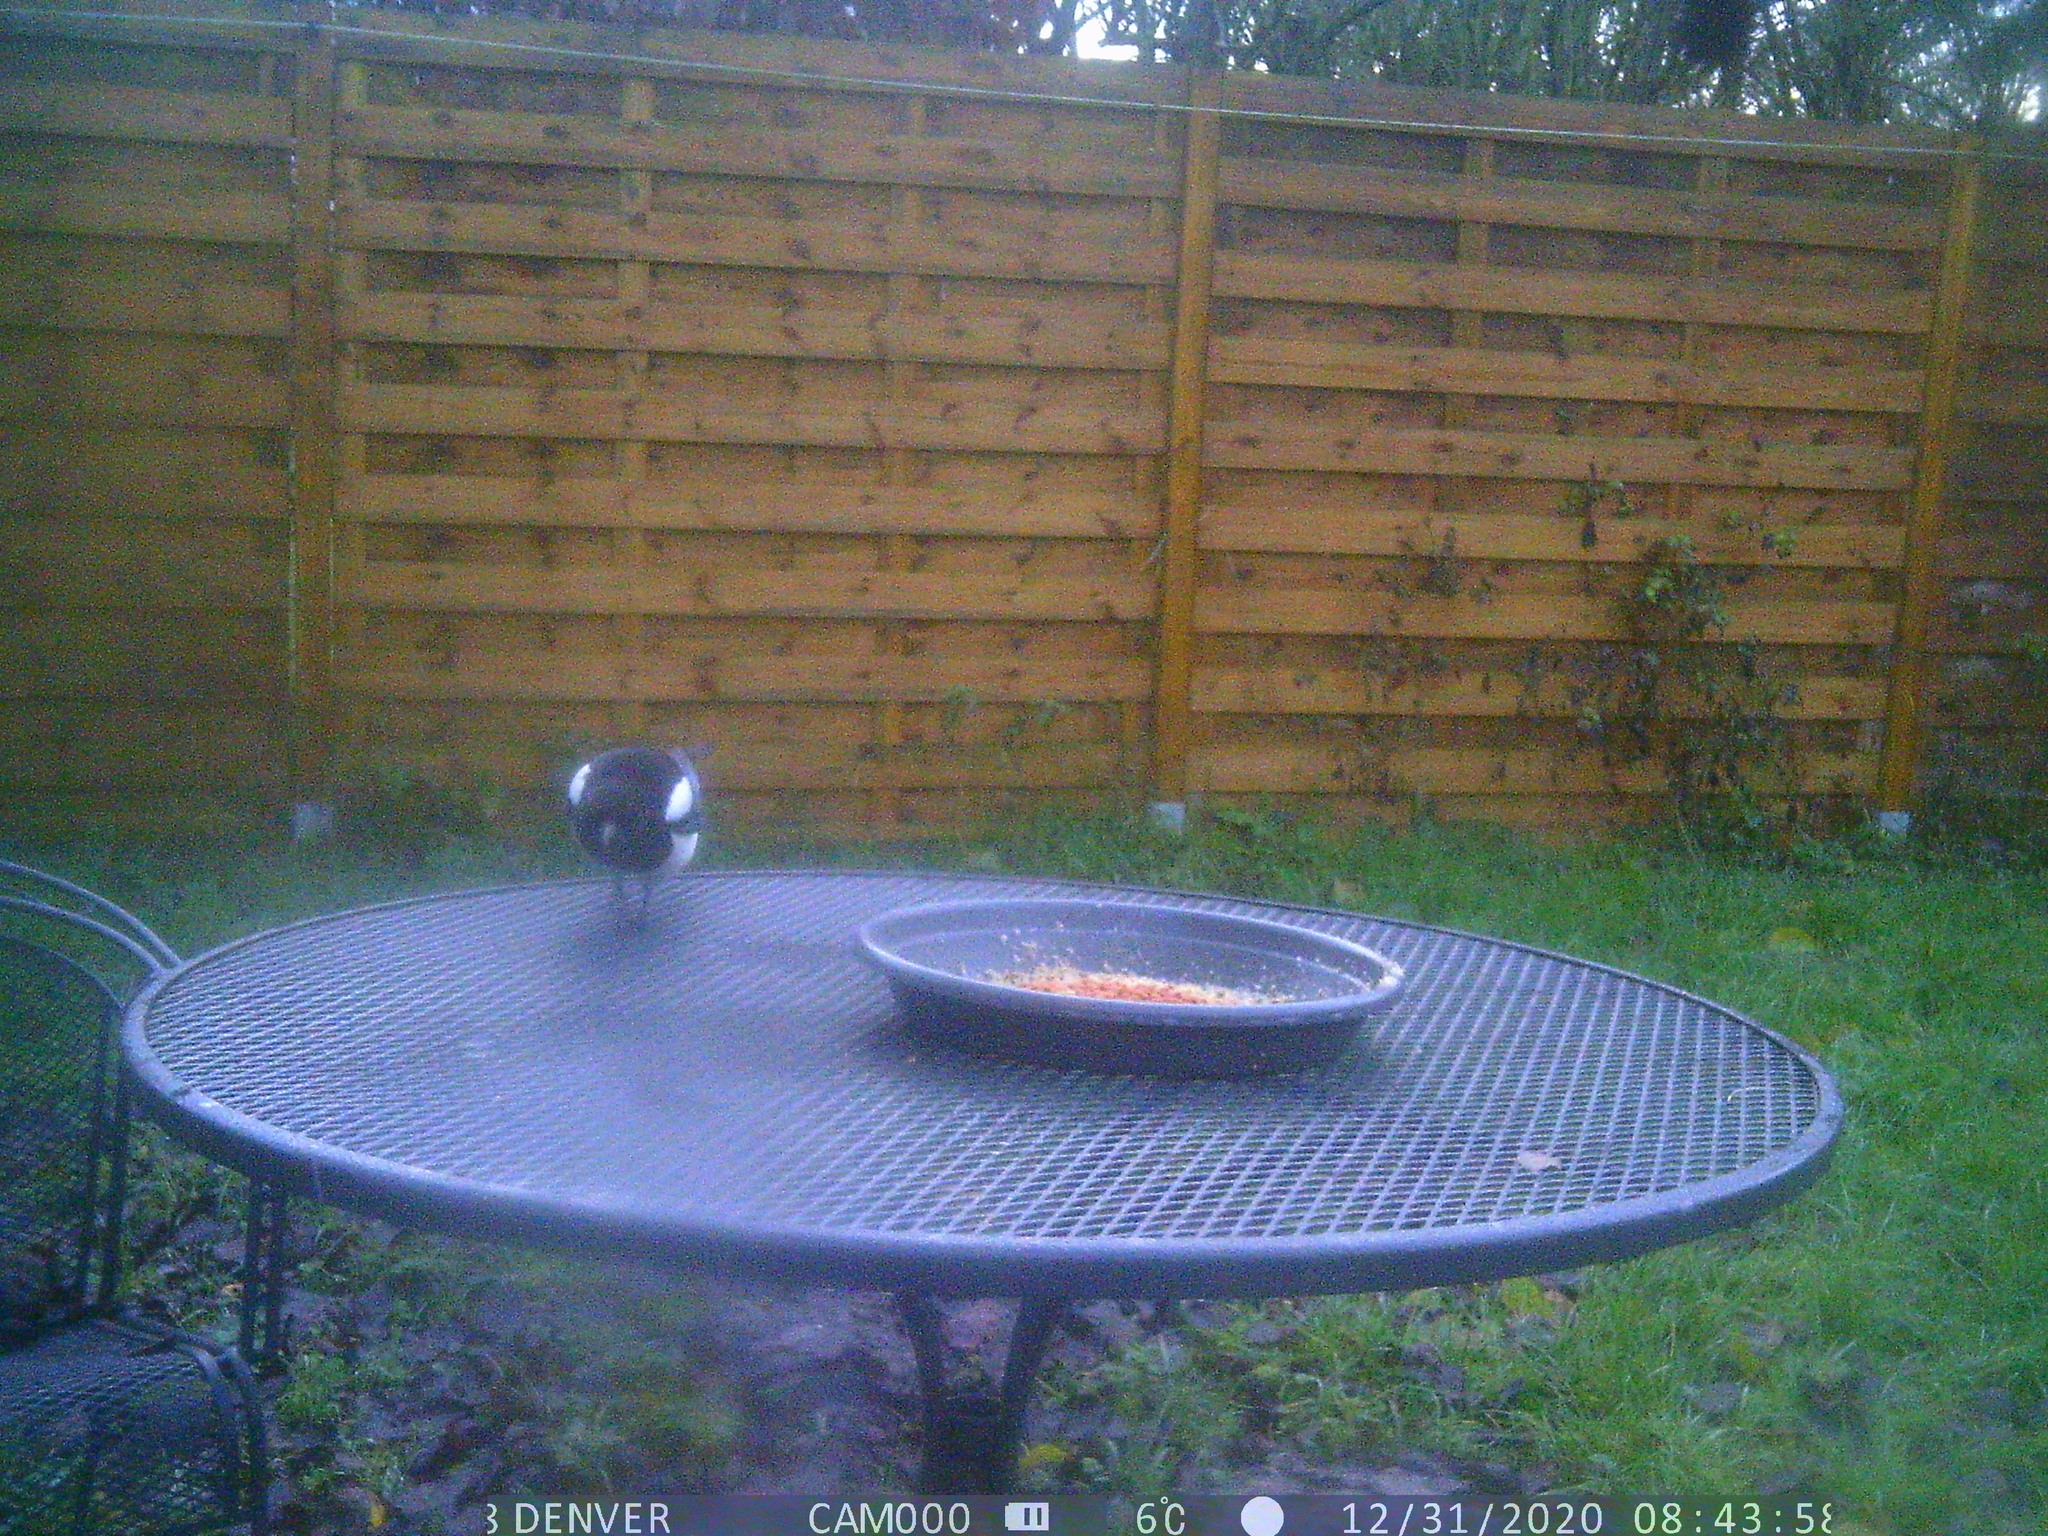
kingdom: Animalia
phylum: Chordata
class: Aves
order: Passeriformes
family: Corvidae
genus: Pica
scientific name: Pica pica
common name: Eurasian magpie
